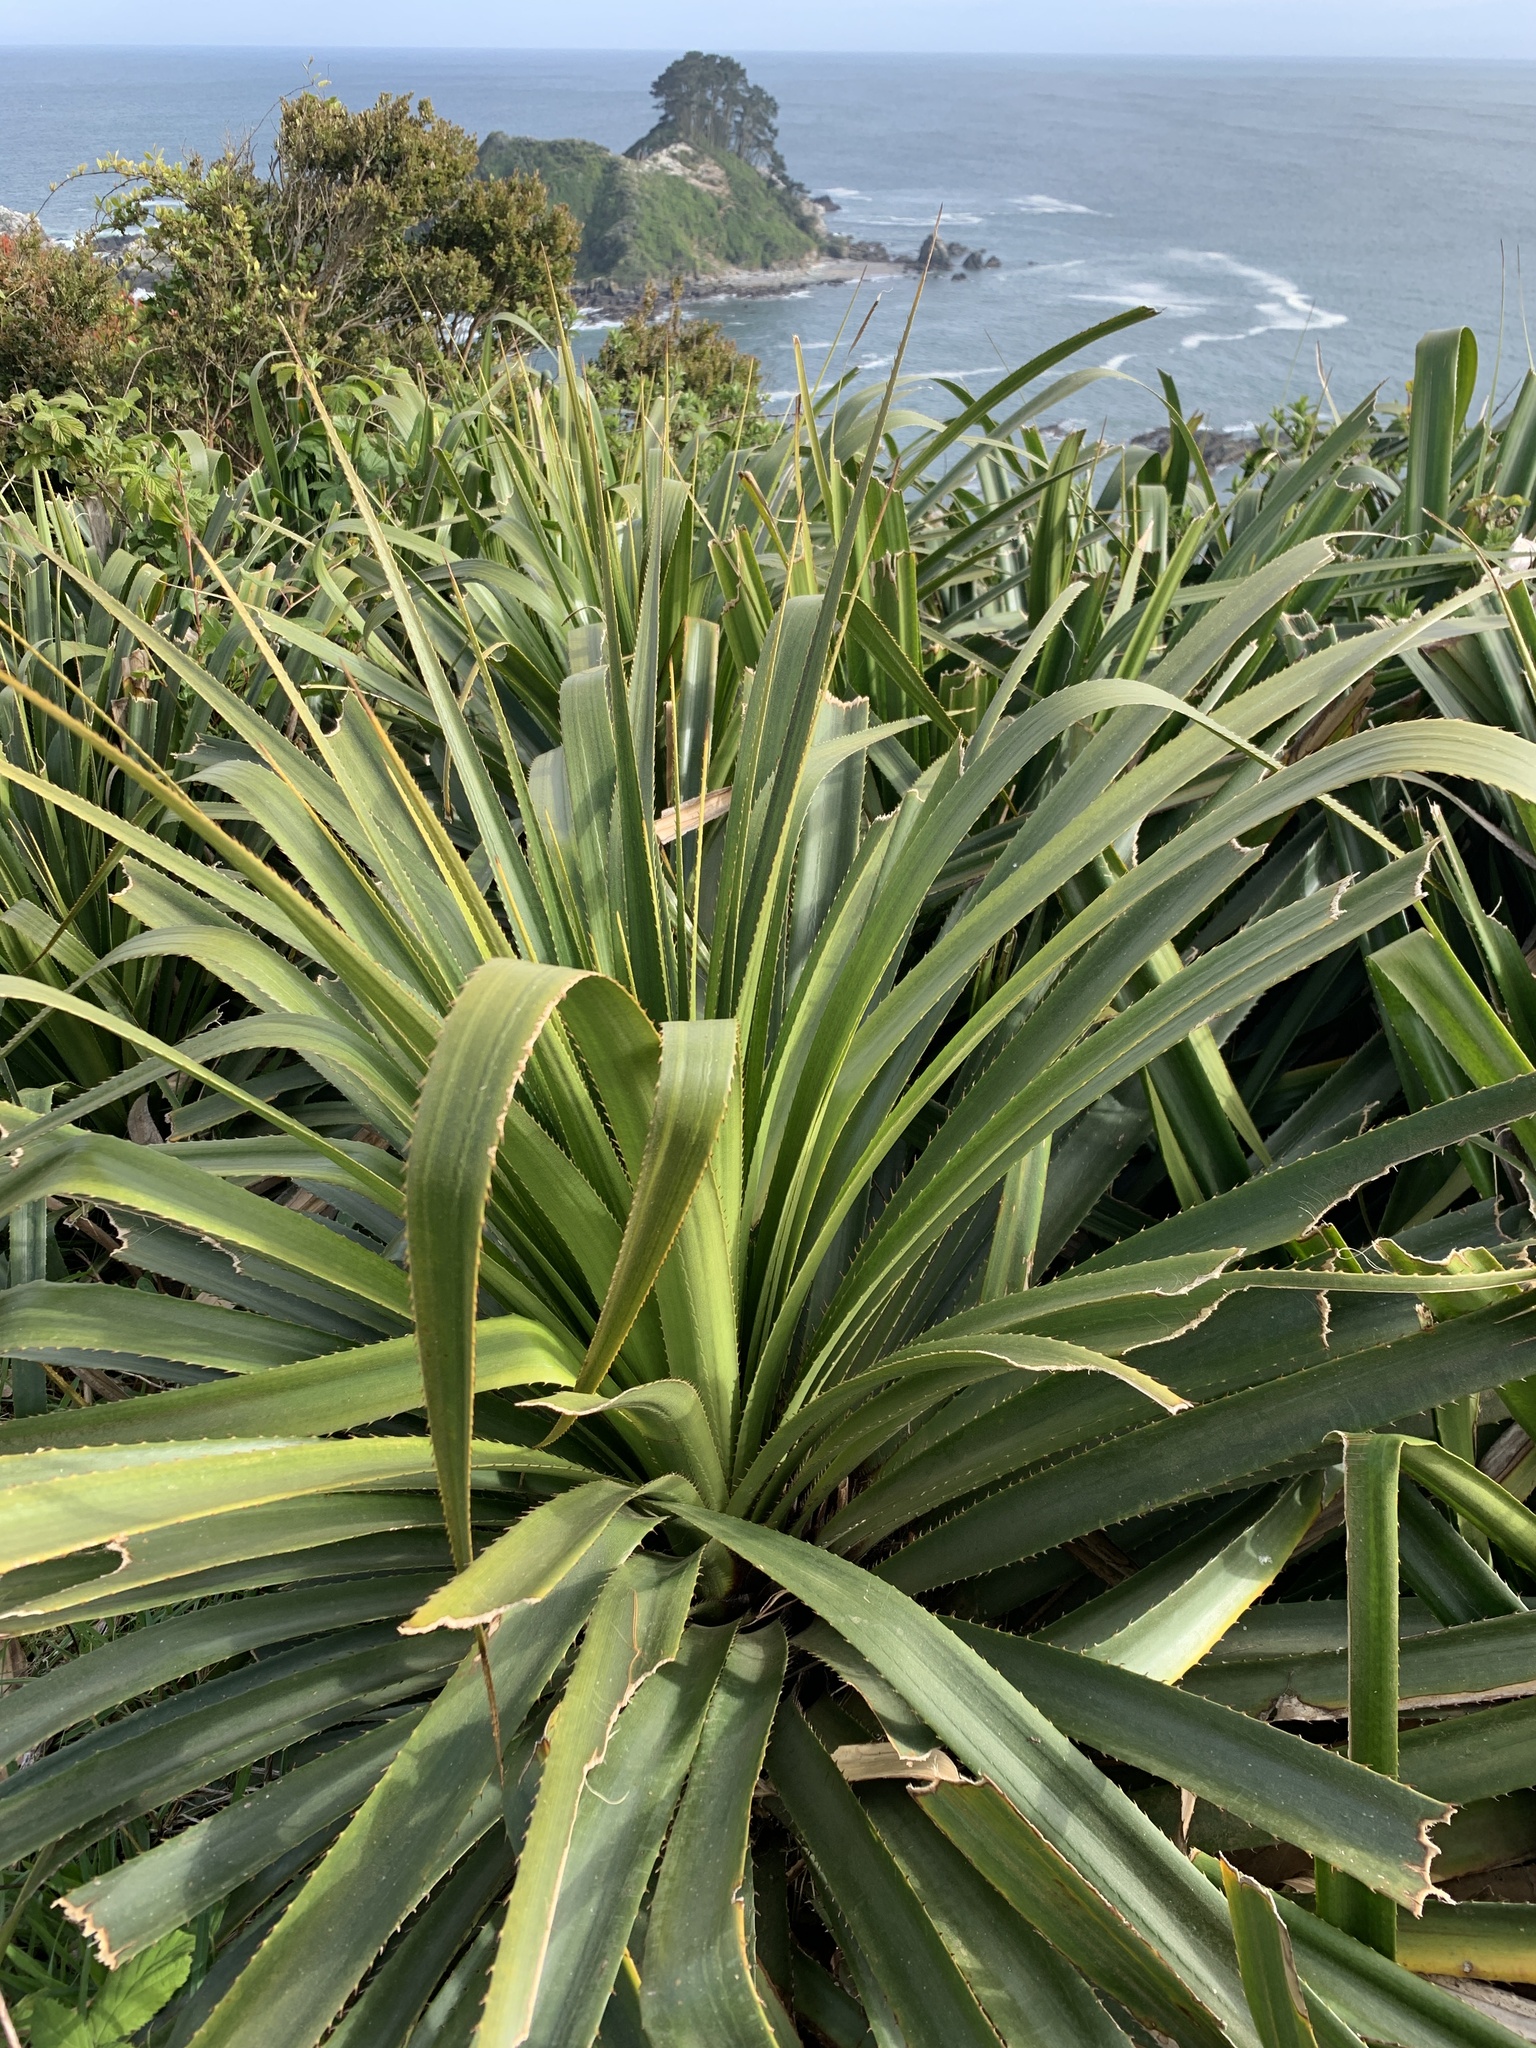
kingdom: Plantae
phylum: Tracheophyta
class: Liliopsida
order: Poales
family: Bromeliaceae
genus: Greigia
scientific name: Greigia sphacelata
